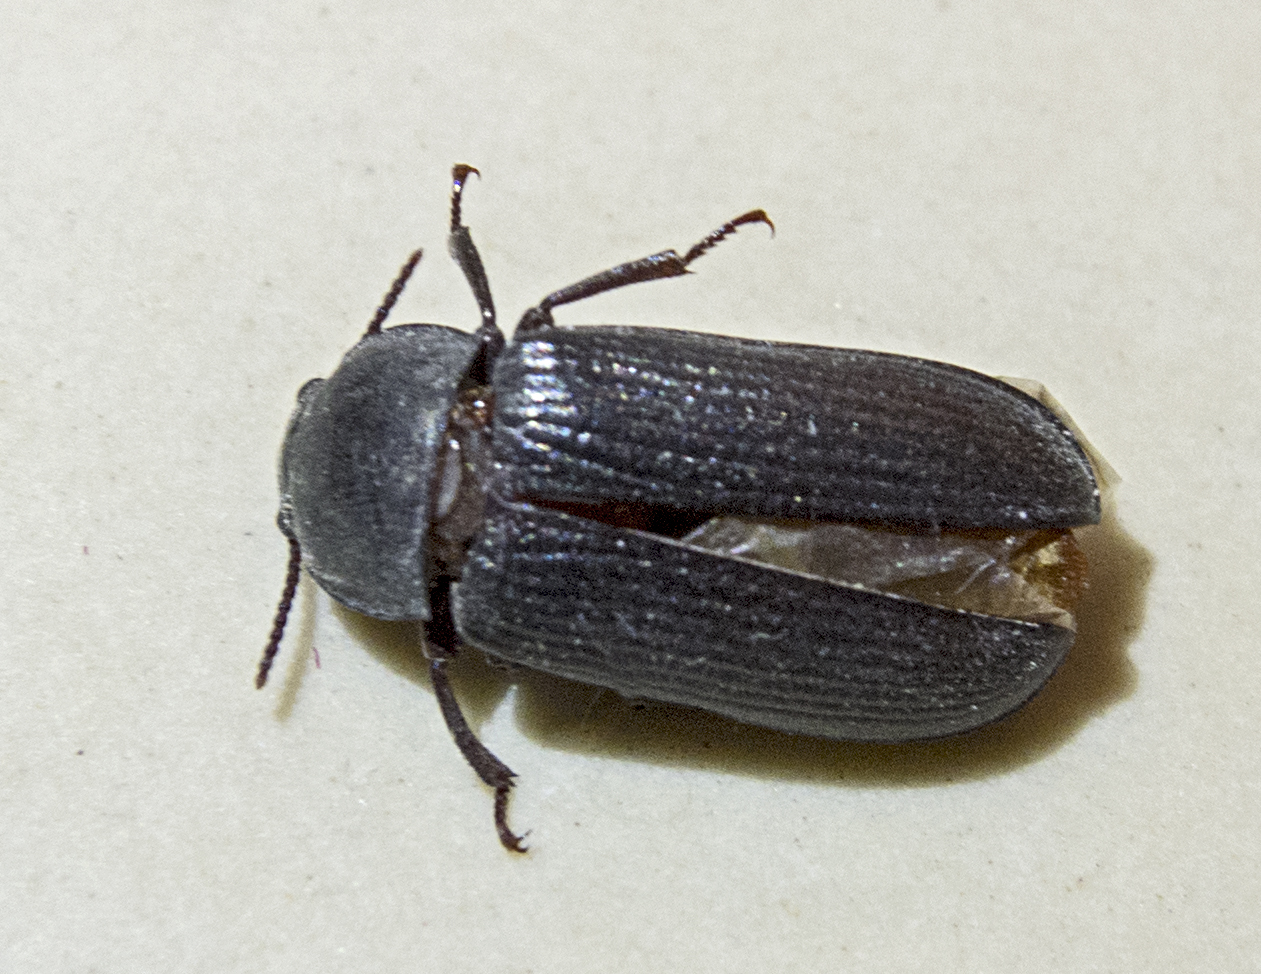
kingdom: Animalia
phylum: Arthropoda
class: Insecta
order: Coleoptera
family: Tenebrionidae
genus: Tenebrio
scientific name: Tenebrio molitor
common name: Hardback beetle
